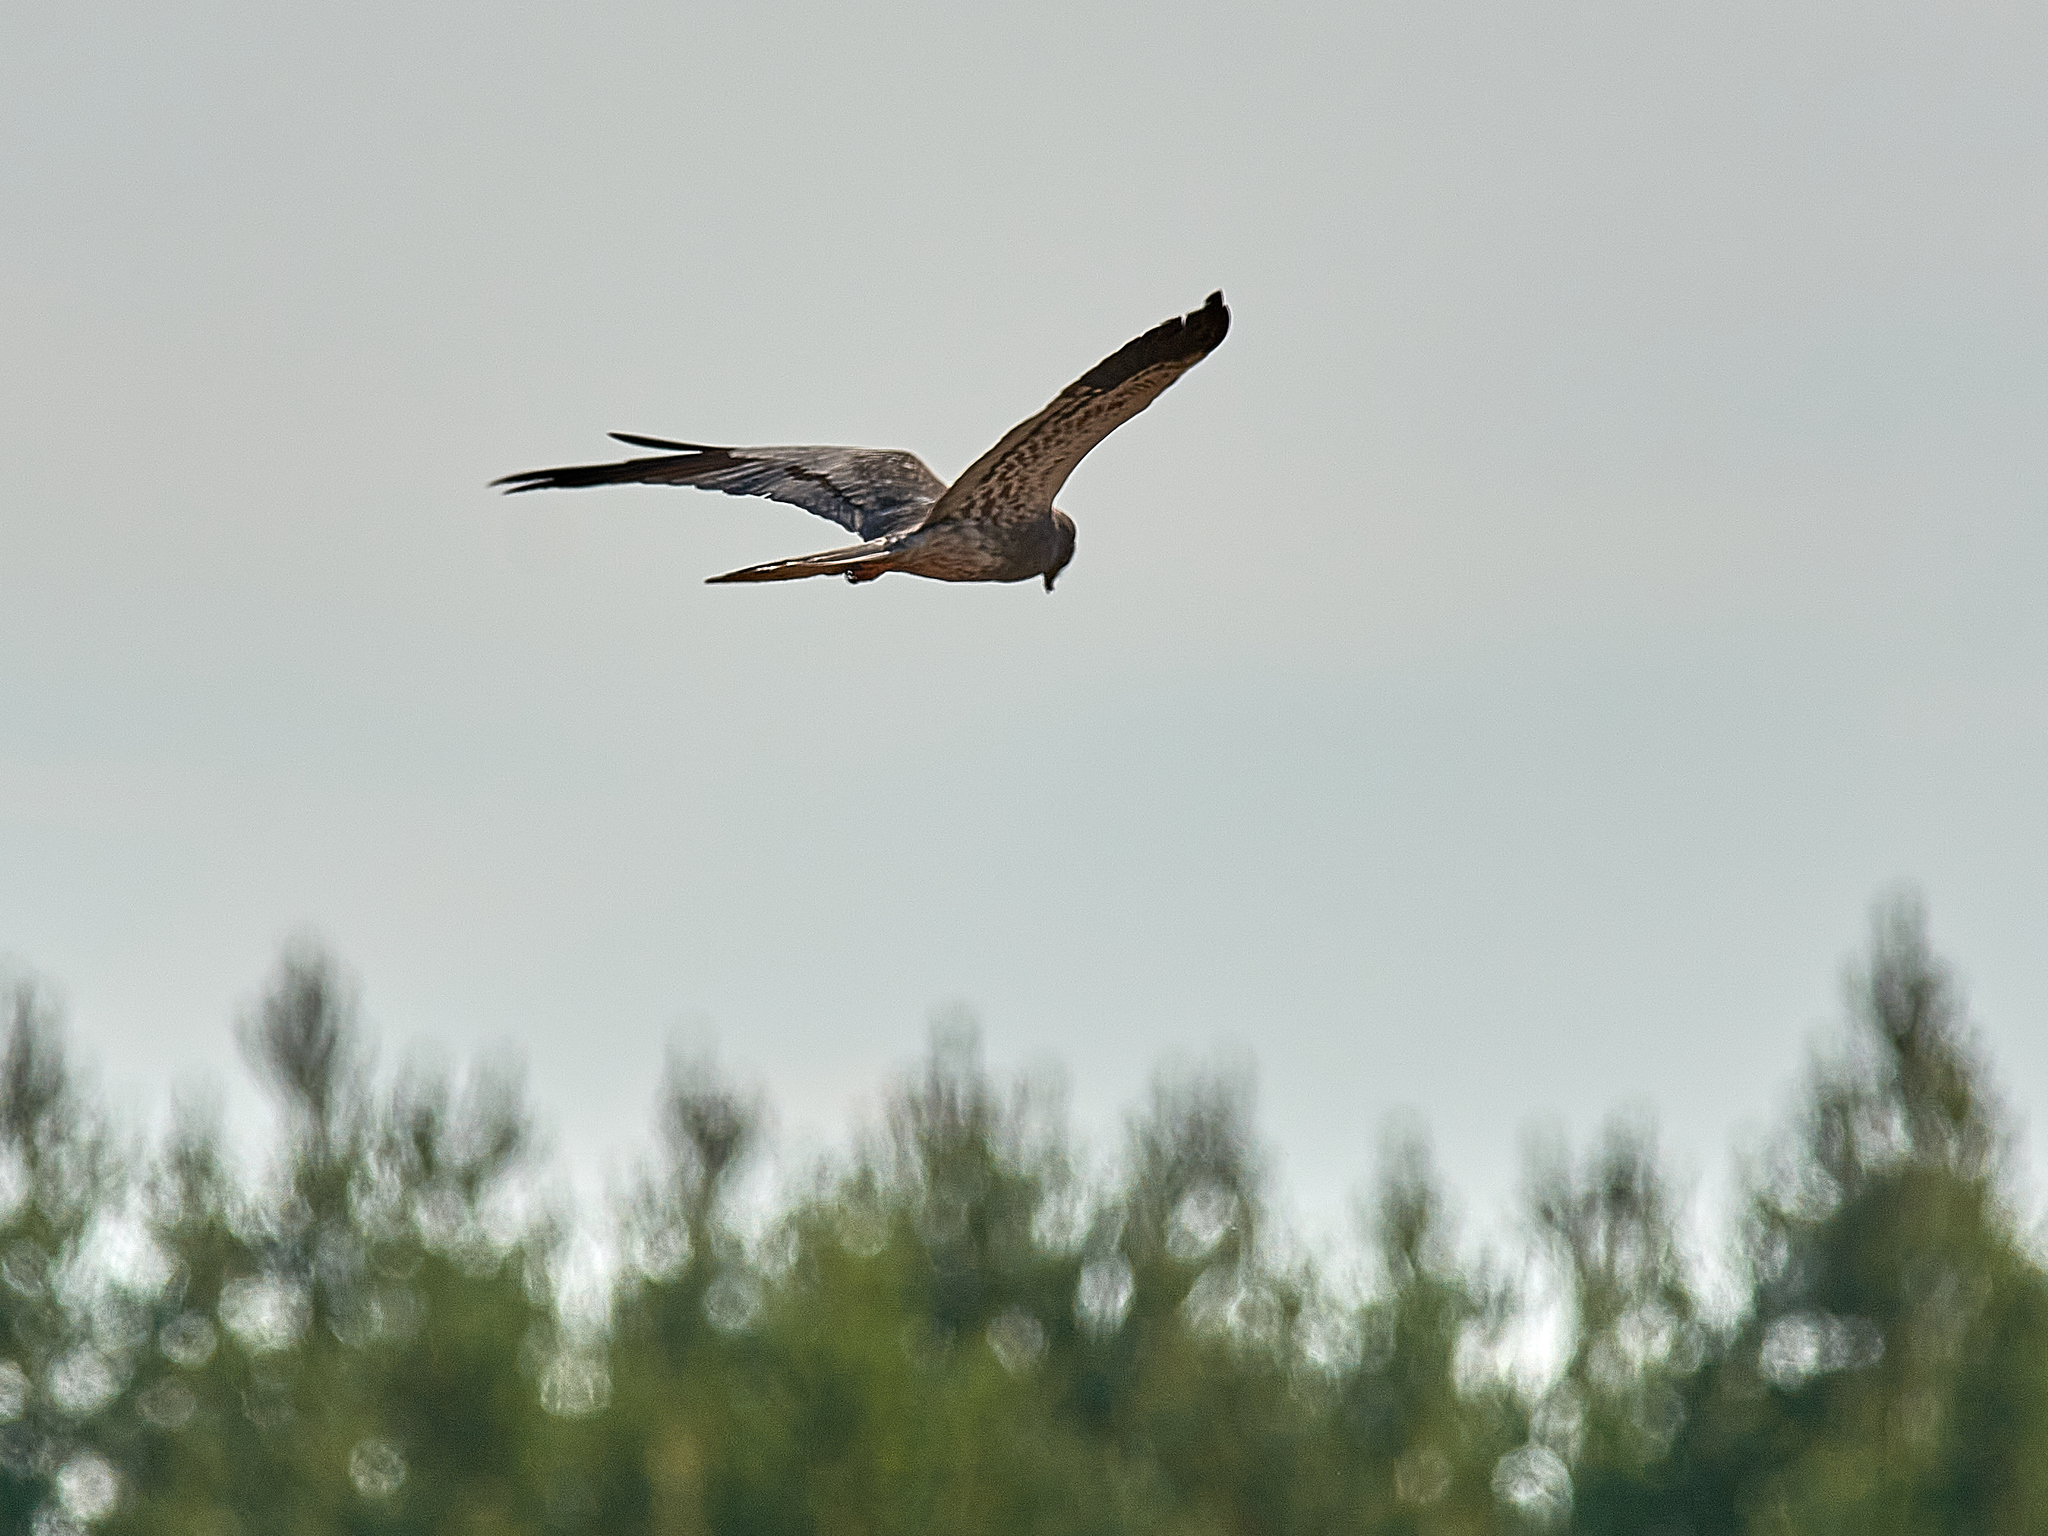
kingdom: Animalia
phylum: Chordata
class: Aves
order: Accipitriformes
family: Accipitridae
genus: Circus
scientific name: Circus pygargus
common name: Montagu's harrier
